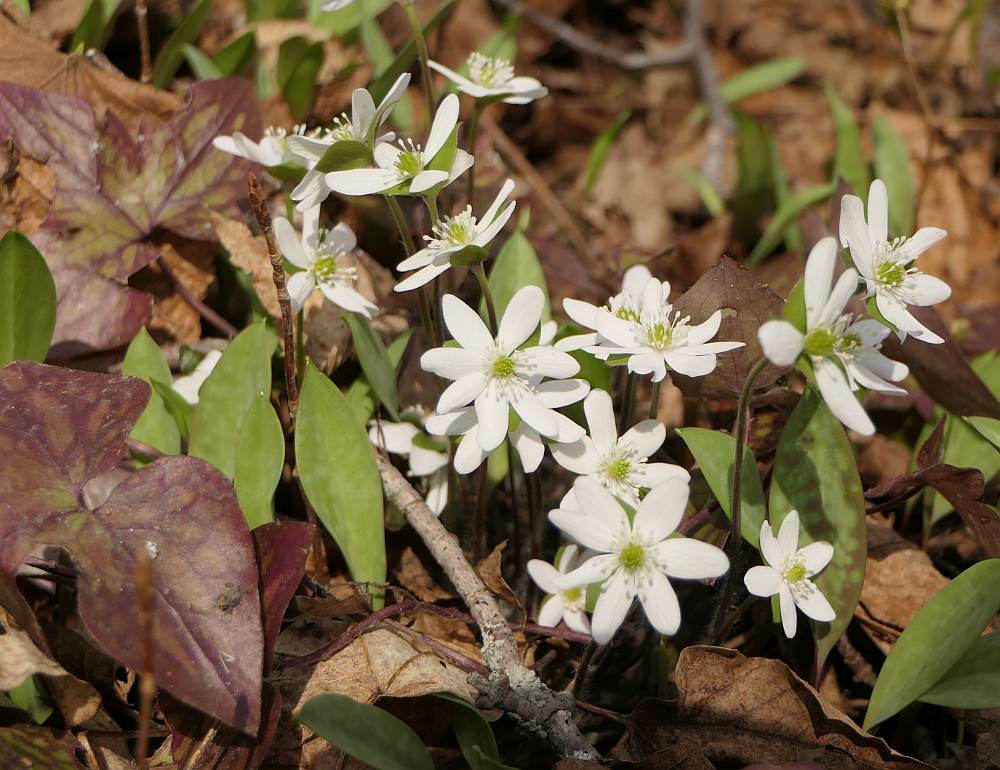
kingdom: Plantae
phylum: Tracheophyta
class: Magnoliopsida
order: Ranunculales
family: Ranunculaceae
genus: Hepatica
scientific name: Hepatica acutiloba
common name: Sharp-lobed hepatica
